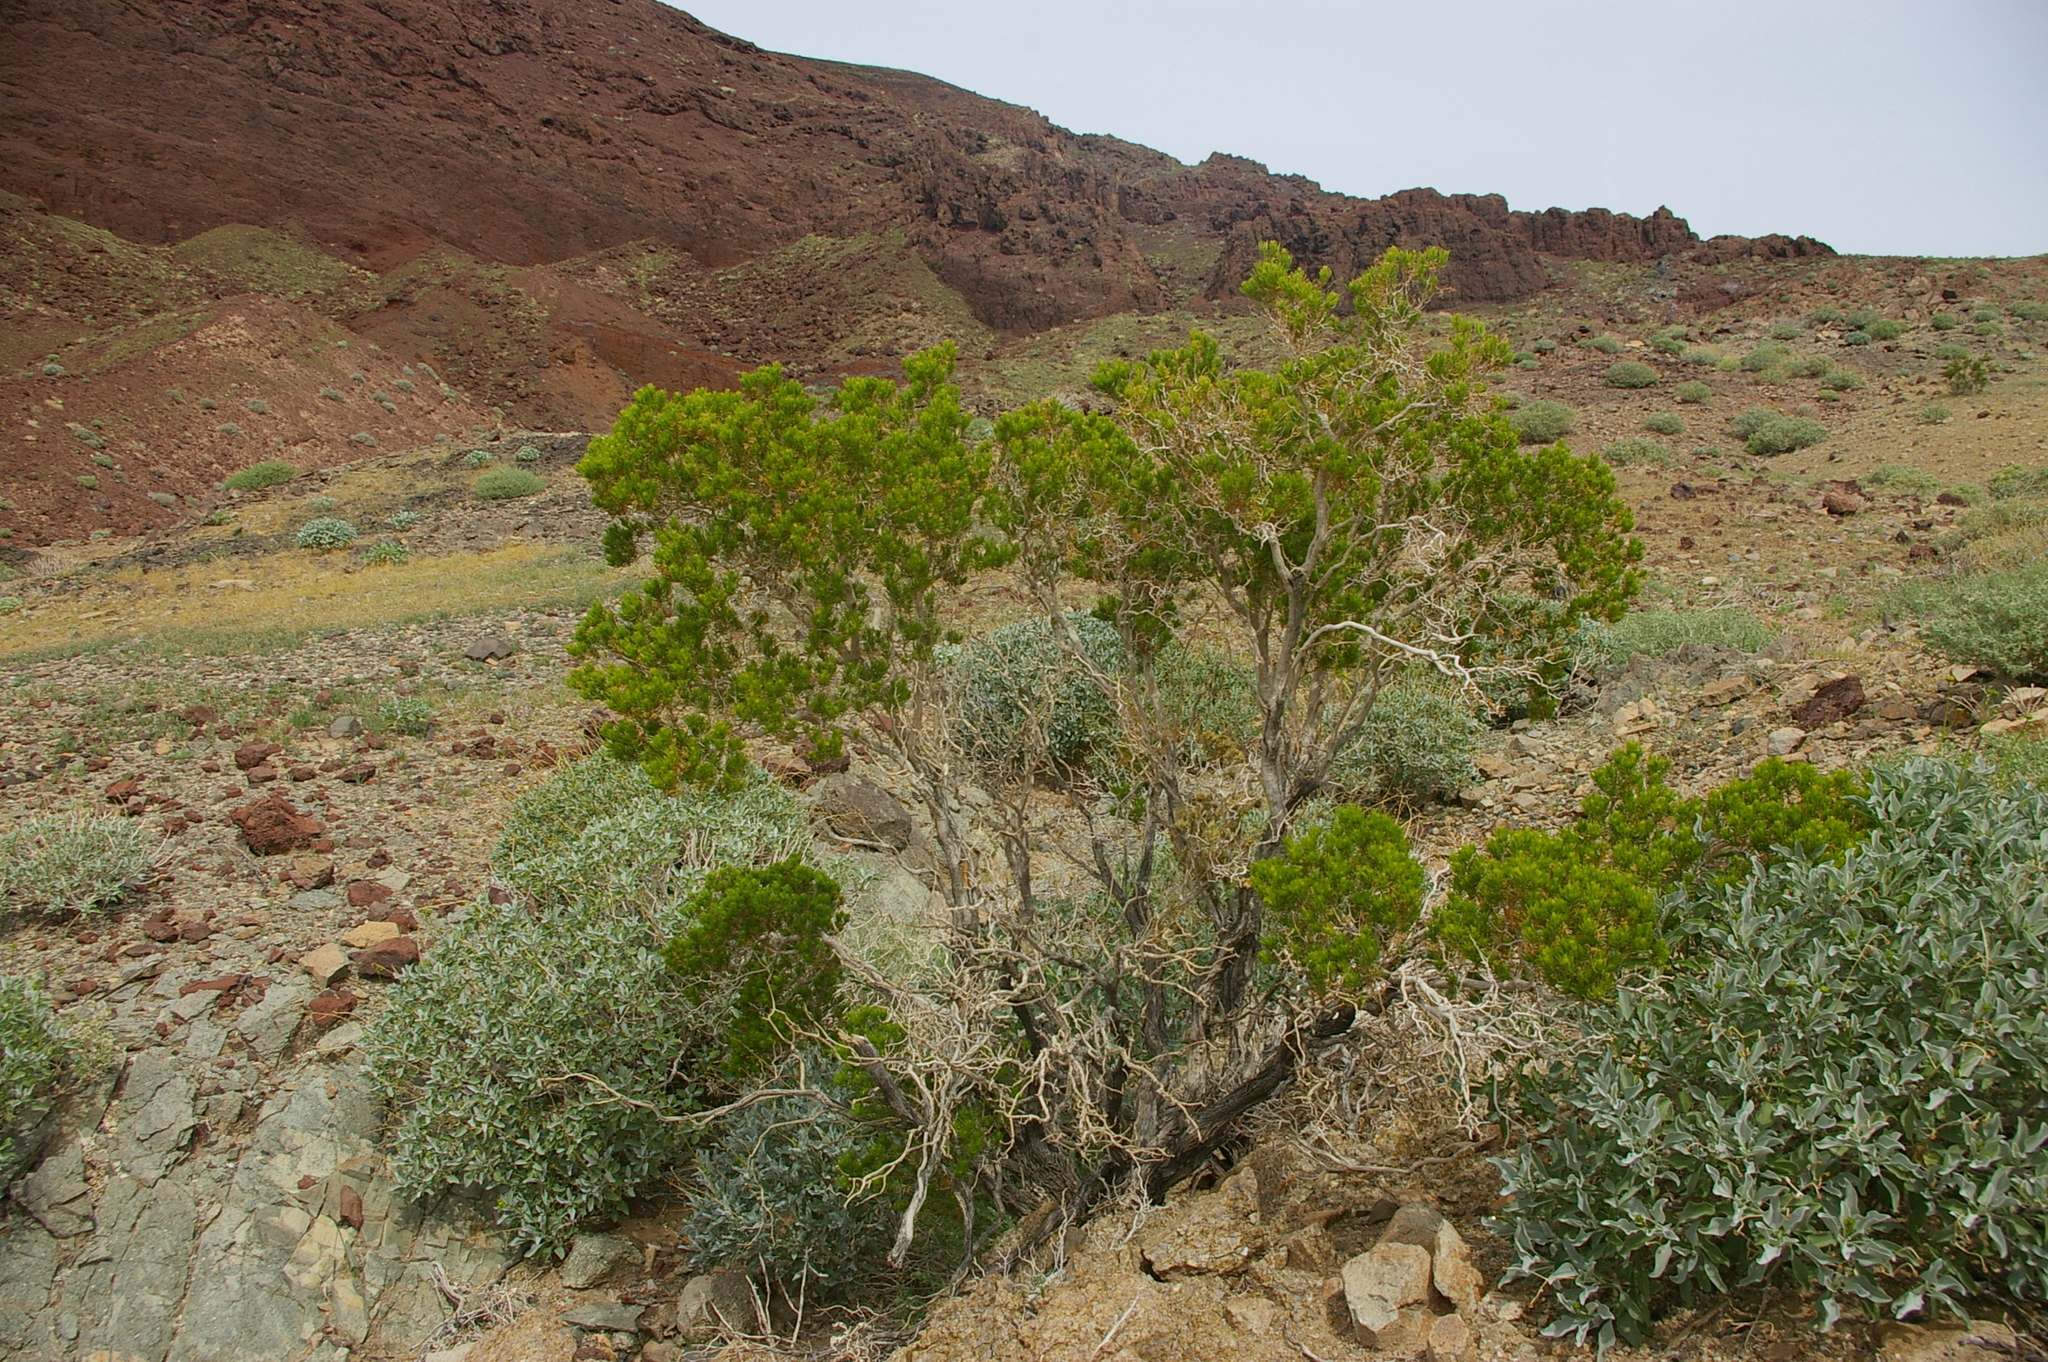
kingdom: Plantae
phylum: Tracheophyta
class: Magnoliopsida
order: Asterales
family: Asteraceae
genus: Peucephyllum
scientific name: Peucephyllum schottii
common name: Pygmy-cedar
